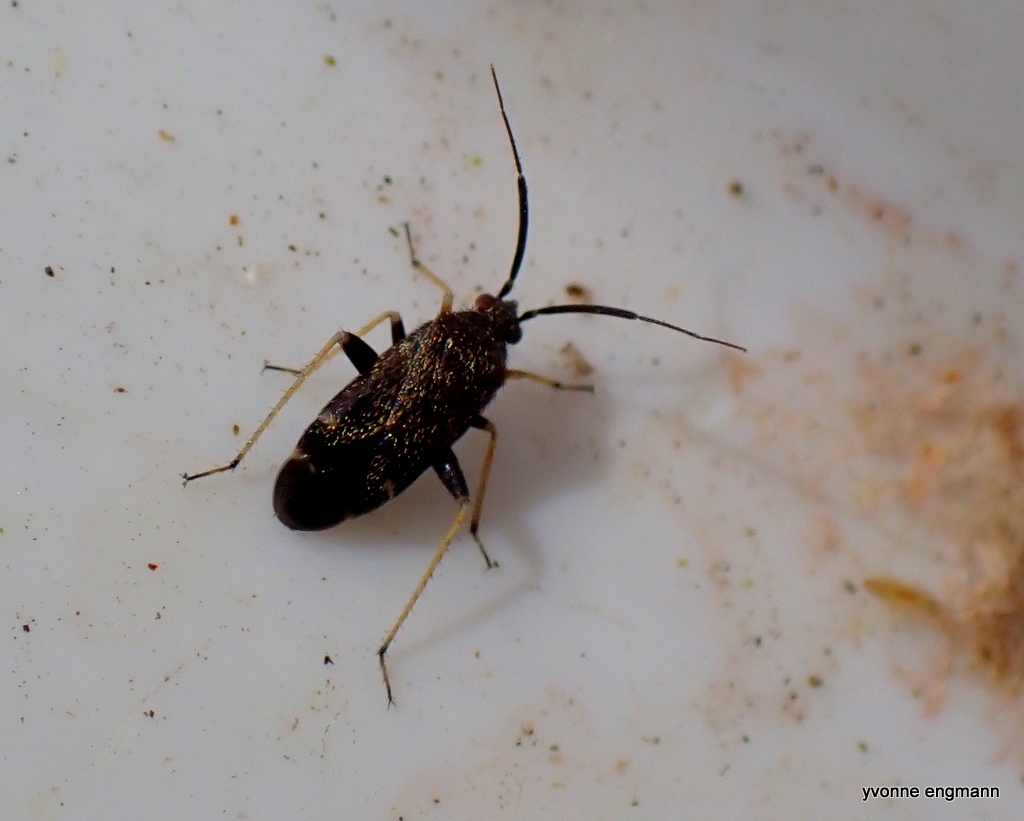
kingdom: Animalia
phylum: Arthropoda
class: Insecta
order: Hemiptera
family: Miridae
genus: Criocoris
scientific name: Criocoris crassicornis
